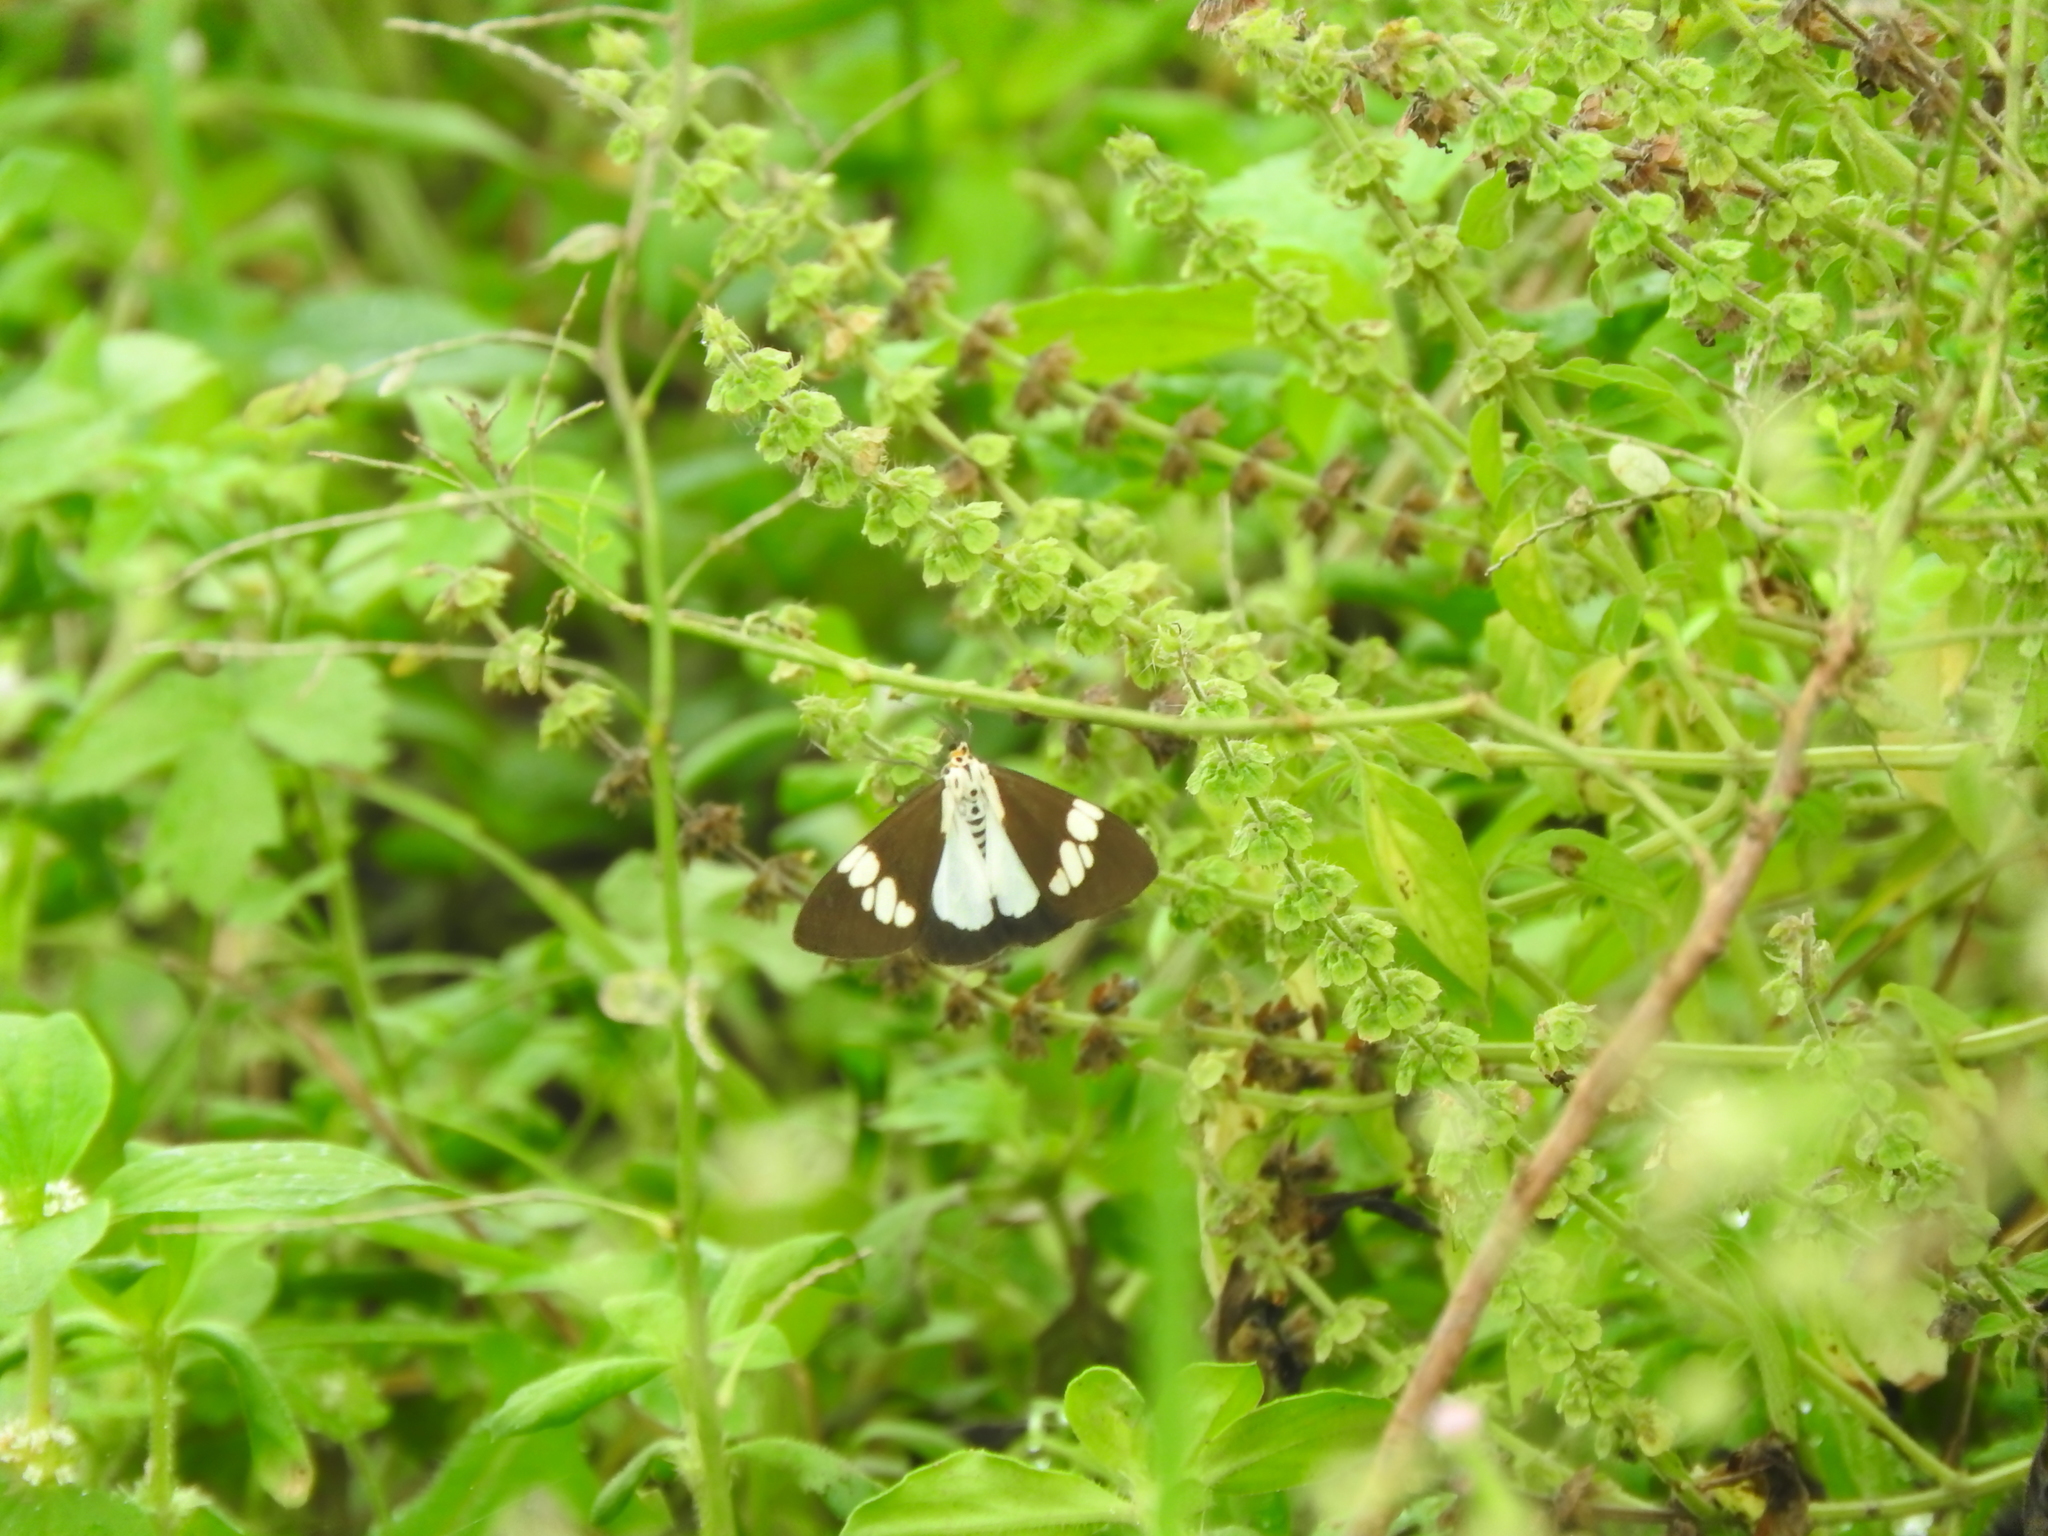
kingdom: Animalia
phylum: Arthropoda
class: Insecta
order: Lepidoptera
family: Erebidae
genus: Nyctemera
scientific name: Nyctemera lacticinia
